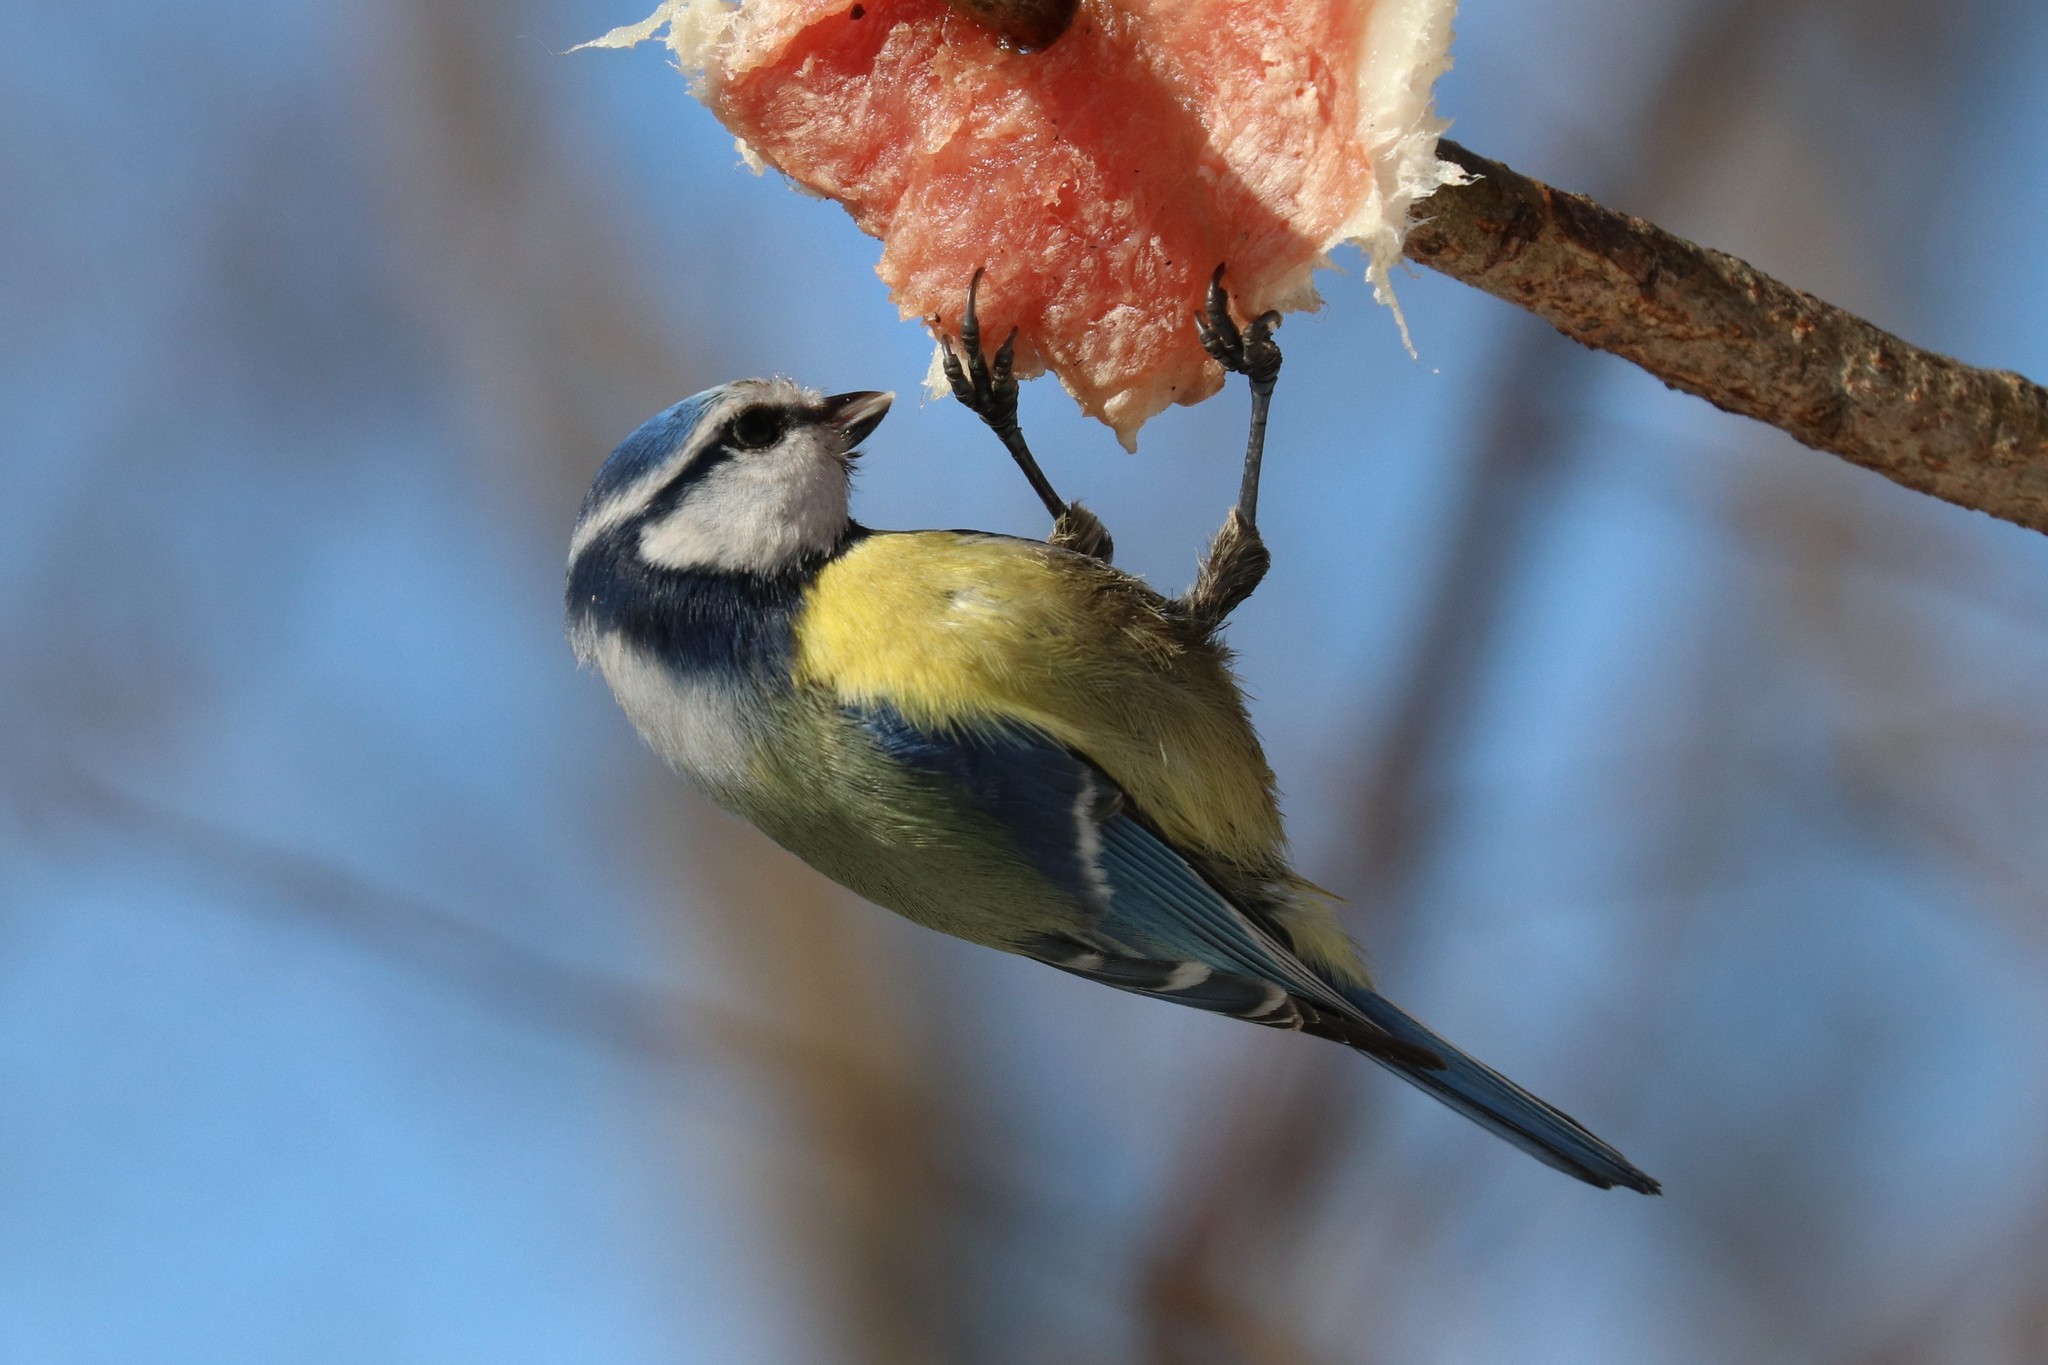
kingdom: Animalia
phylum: Chordata
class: Aves
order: Passeriformes
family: Paridae
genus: Cyanistes
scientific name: Cyanistes caeruleus
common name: Eurasian blue tit
